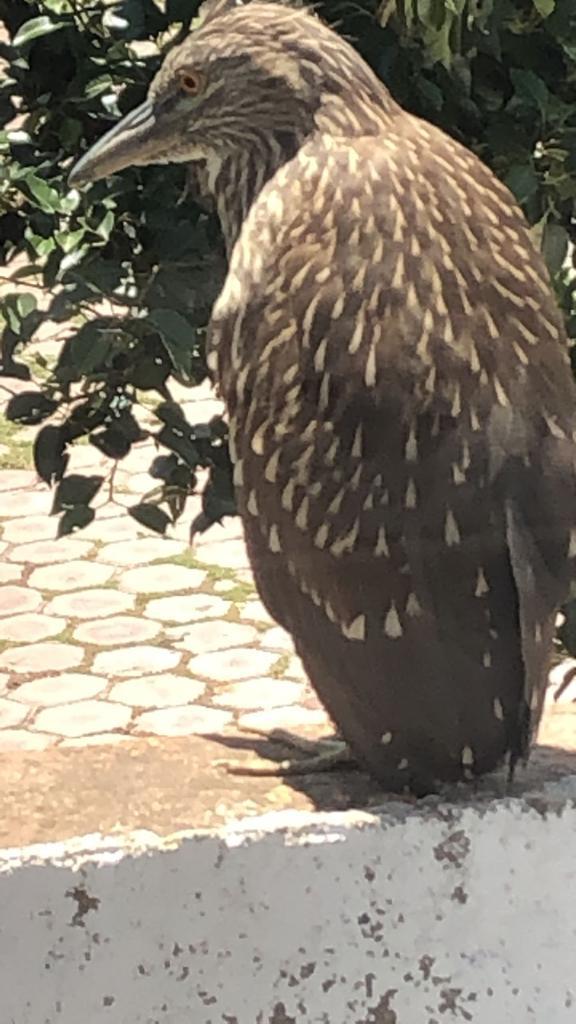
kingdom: Animalia
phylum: Chordata
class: Aves
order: Pelecaniformes
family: Ardeidae
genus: Nycticorax
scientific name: Nycticorax nycticorax
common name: Black-crowned night heron
